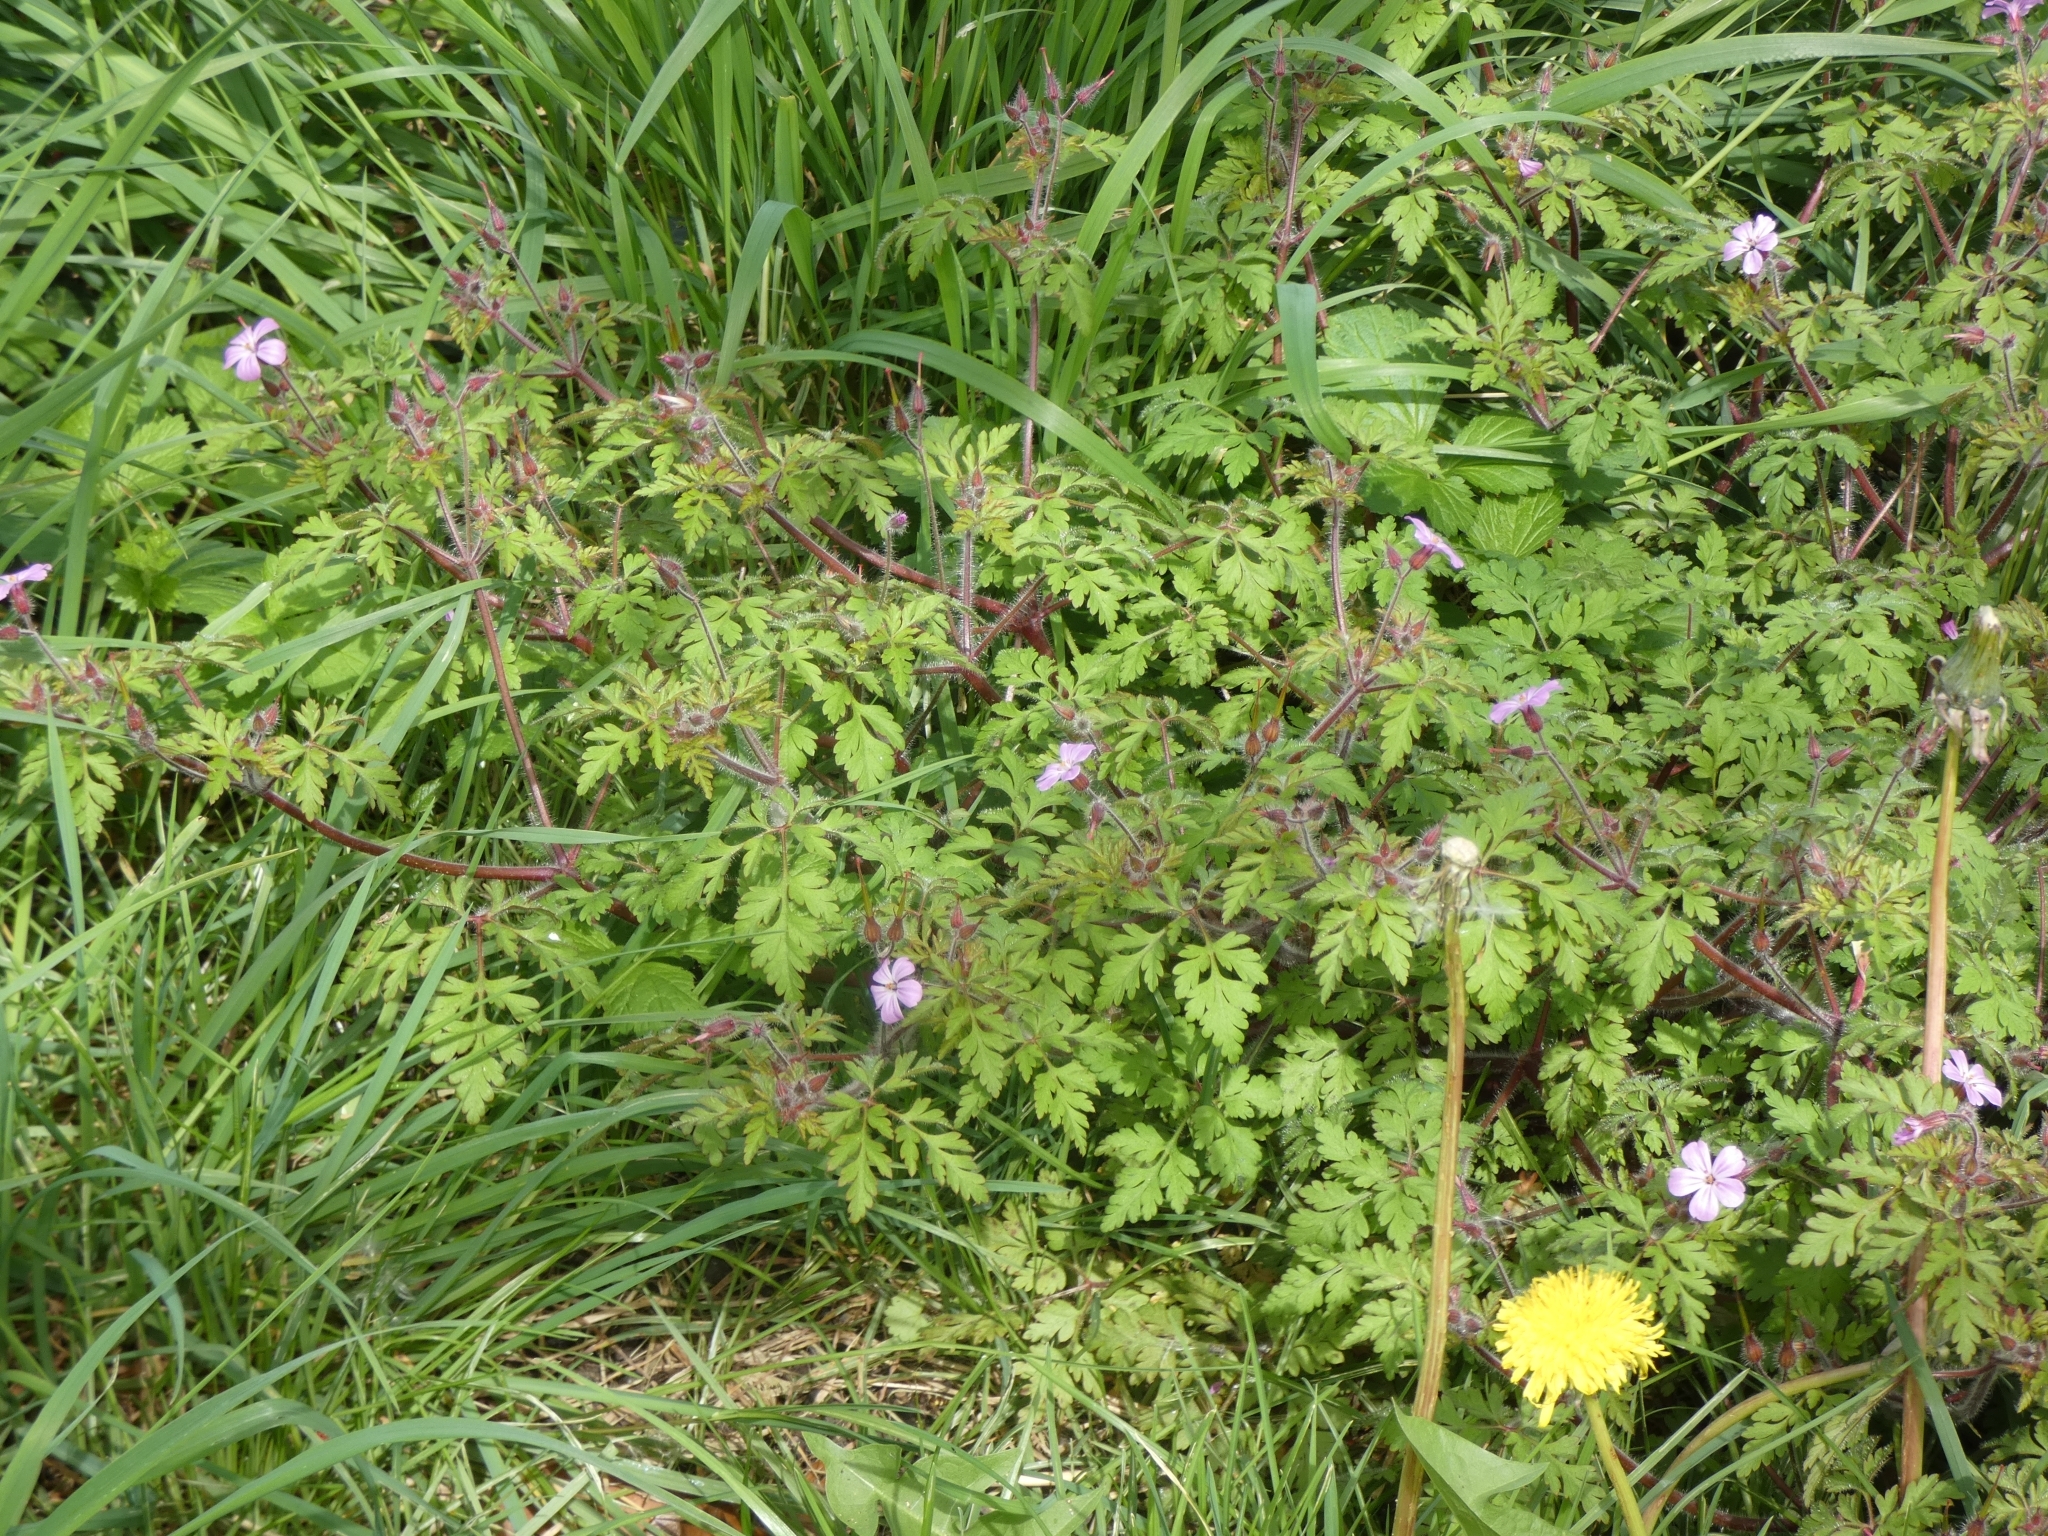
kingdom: Plantae
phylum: Tracheophyta
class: Magnoliopsida
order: Geraniales
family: Geraniaceae
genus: Geranium
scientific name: Geranium robertianum
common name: Herb-robert
